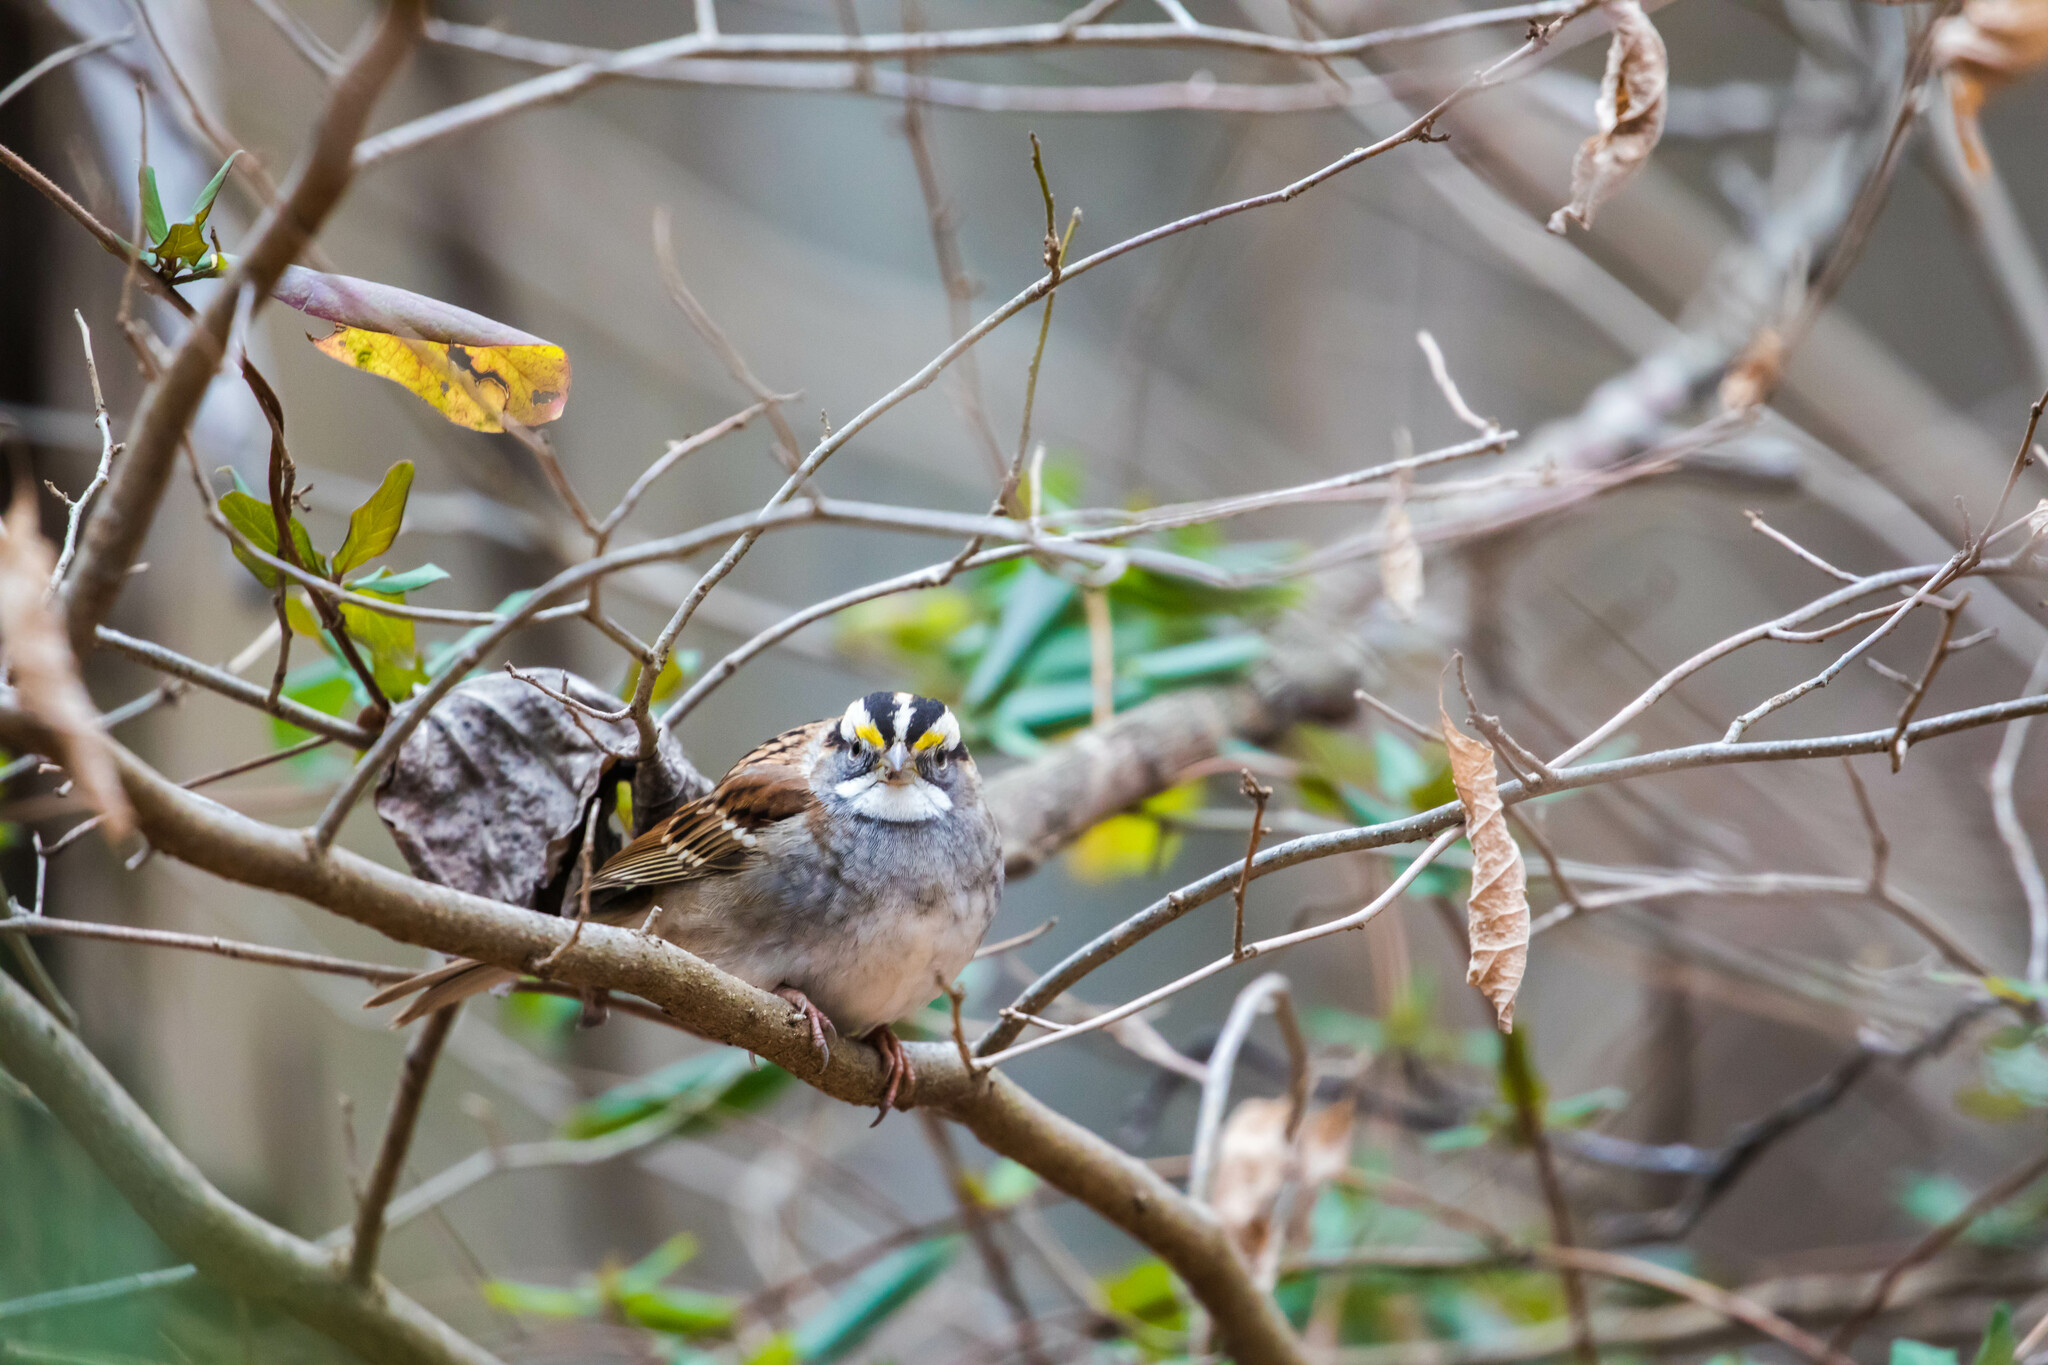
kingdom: Animalia
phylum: Chordata
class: Aves
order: Passeriformes
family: Passerellidae
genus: Zonotrichia
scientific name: Zonotrichia albicollis
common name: White-throated sparrow
